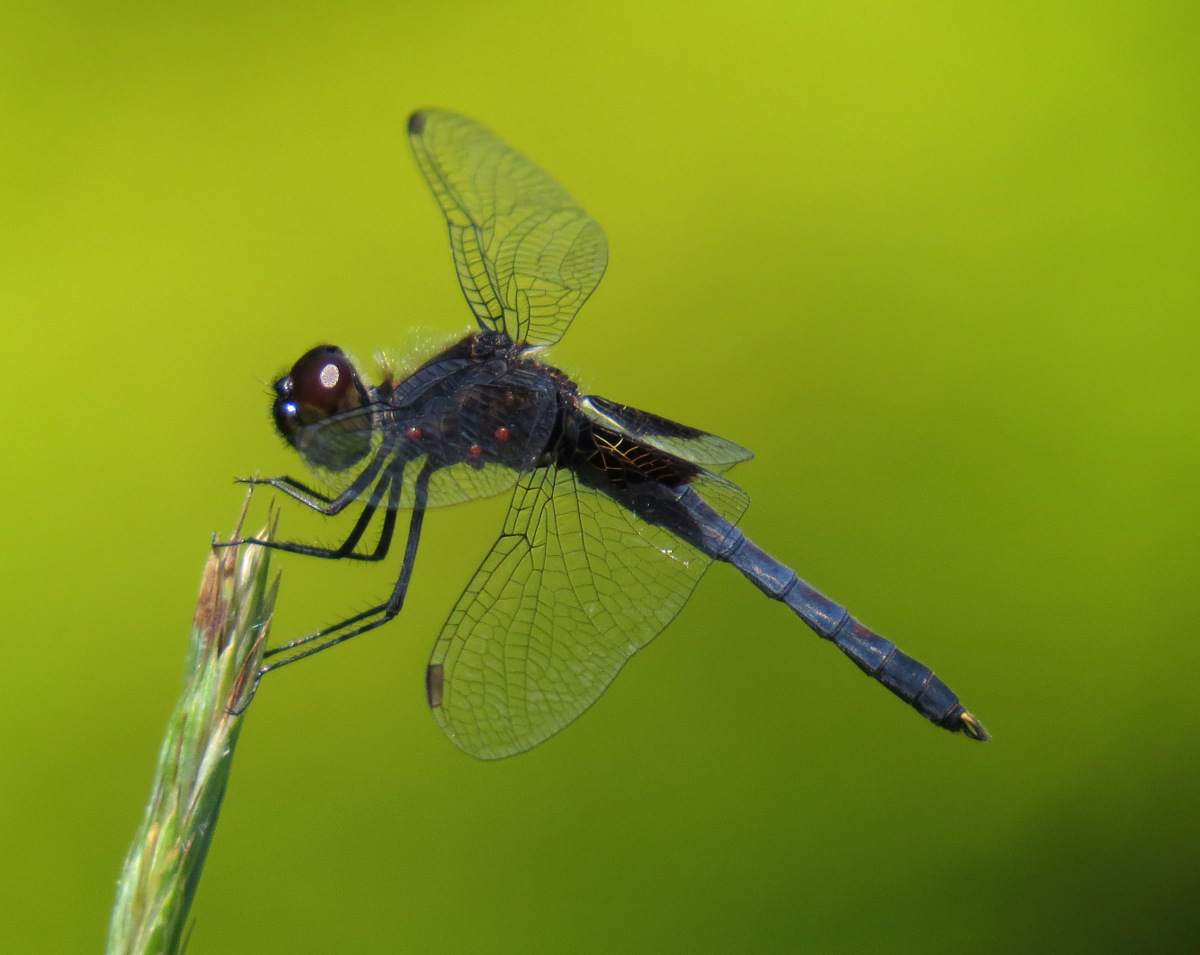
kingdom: Animalia
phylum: Arthropoda
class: Insecta
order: Odonata
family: Libellulidae
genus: Celithemis
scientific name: Celithemis martha
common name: Martha's pennant
